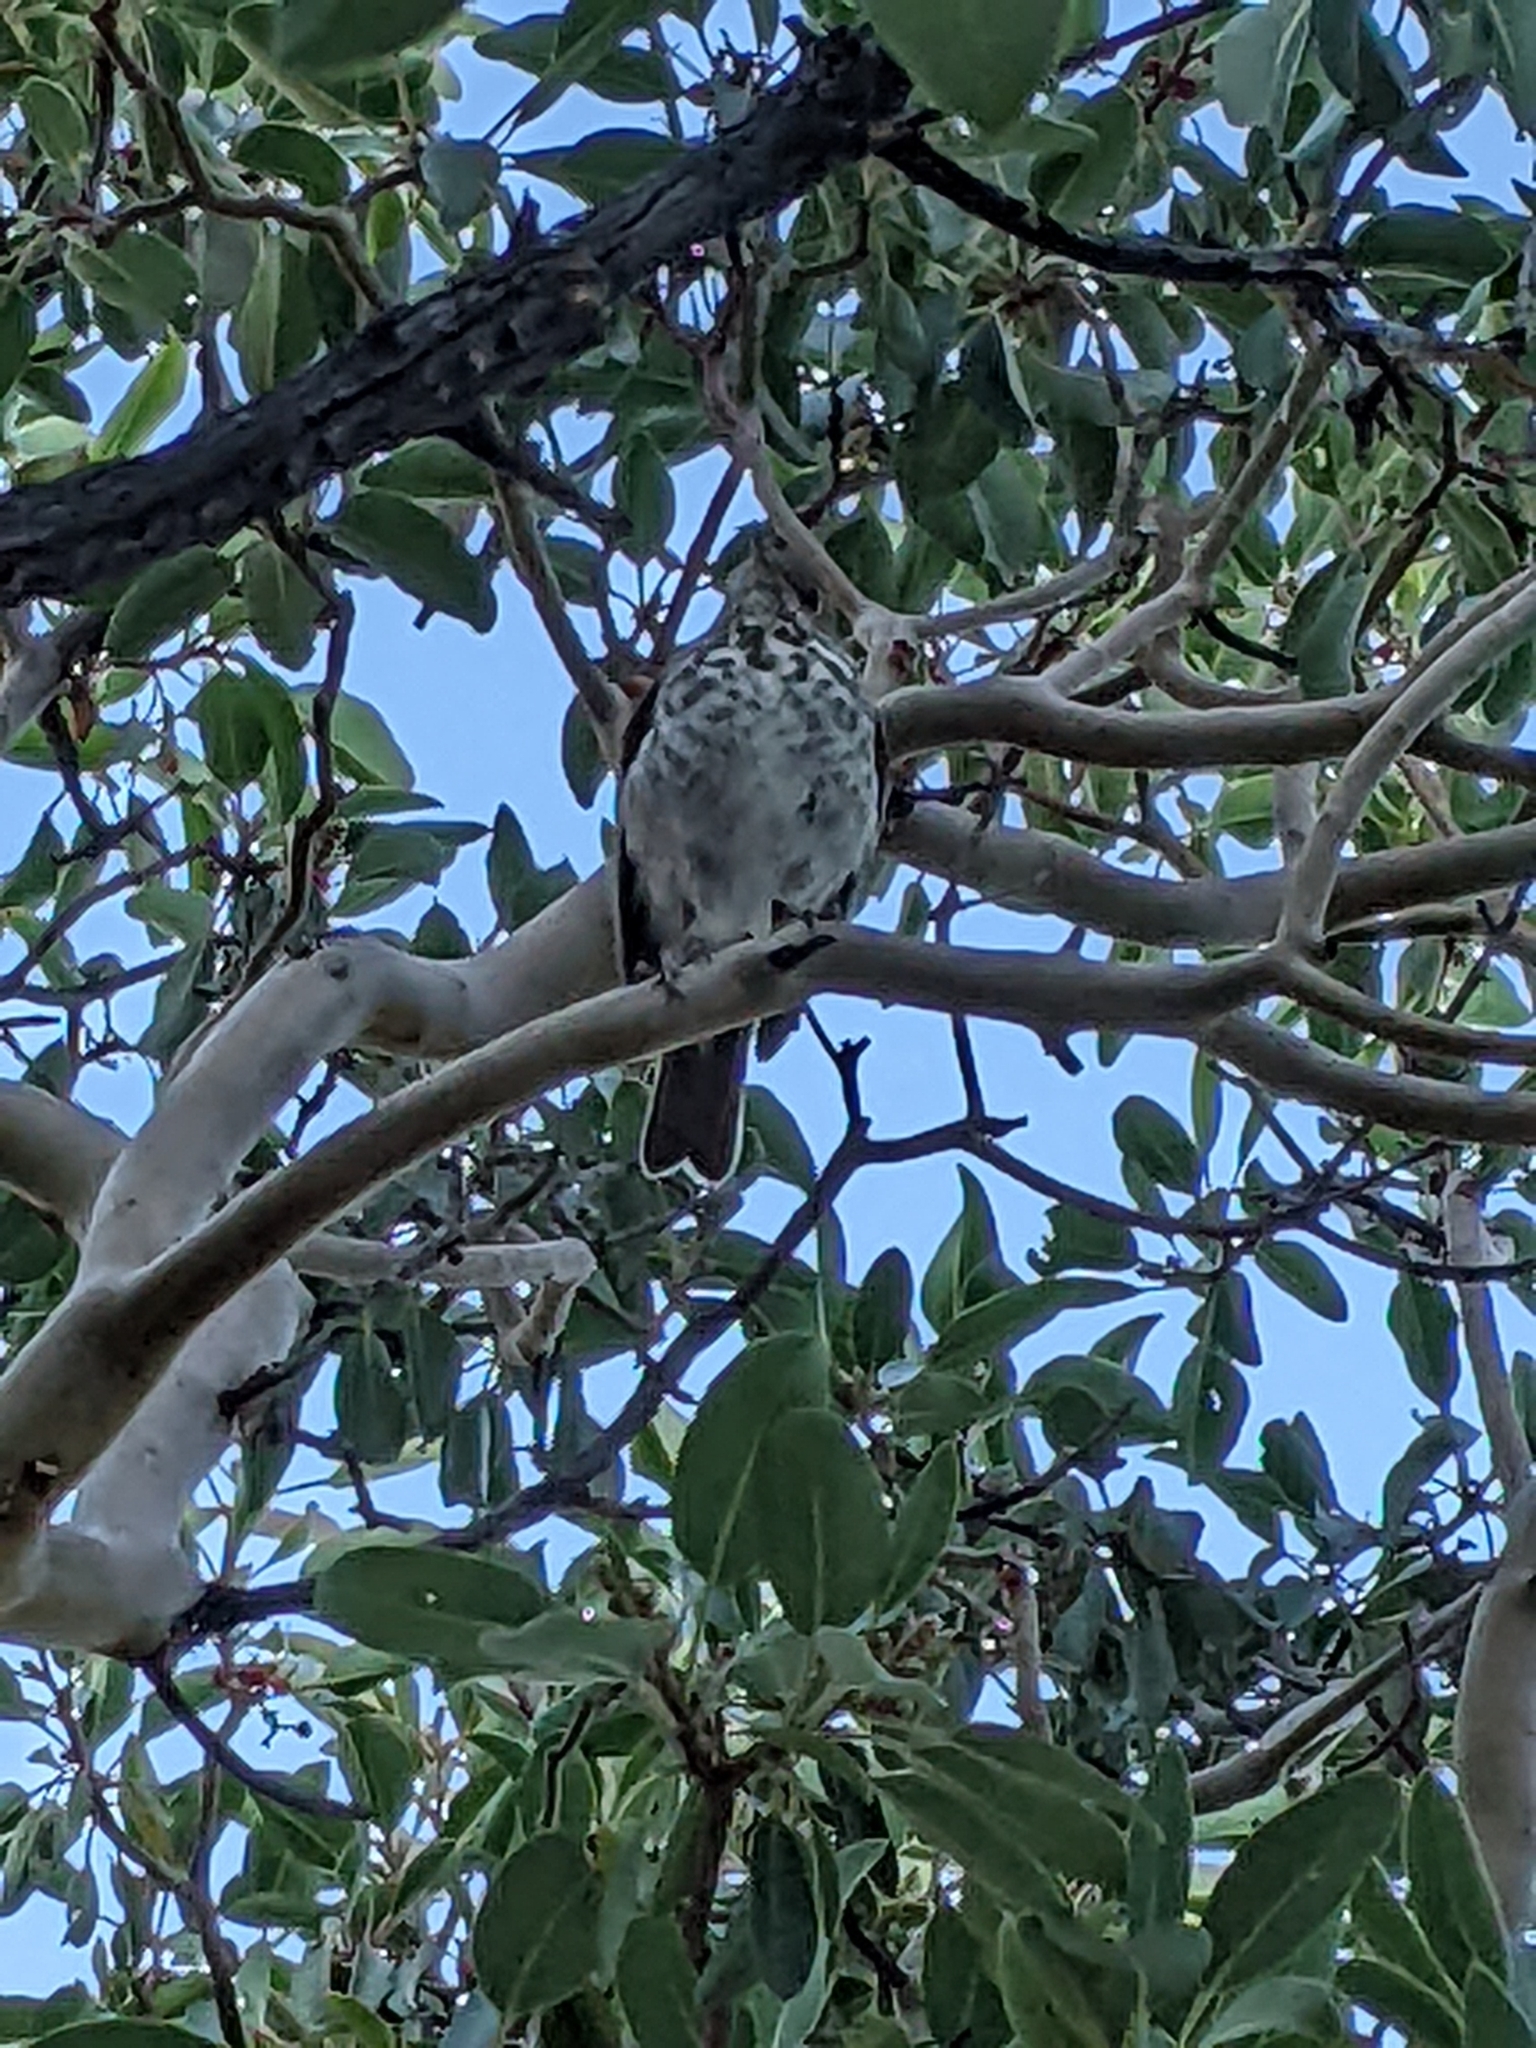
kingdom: Animalia
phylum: Chordata
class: Aves
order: Passeriformes
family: Turdidae
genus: Catharus
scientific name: Catharus guttatus
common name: Hermit thrush
